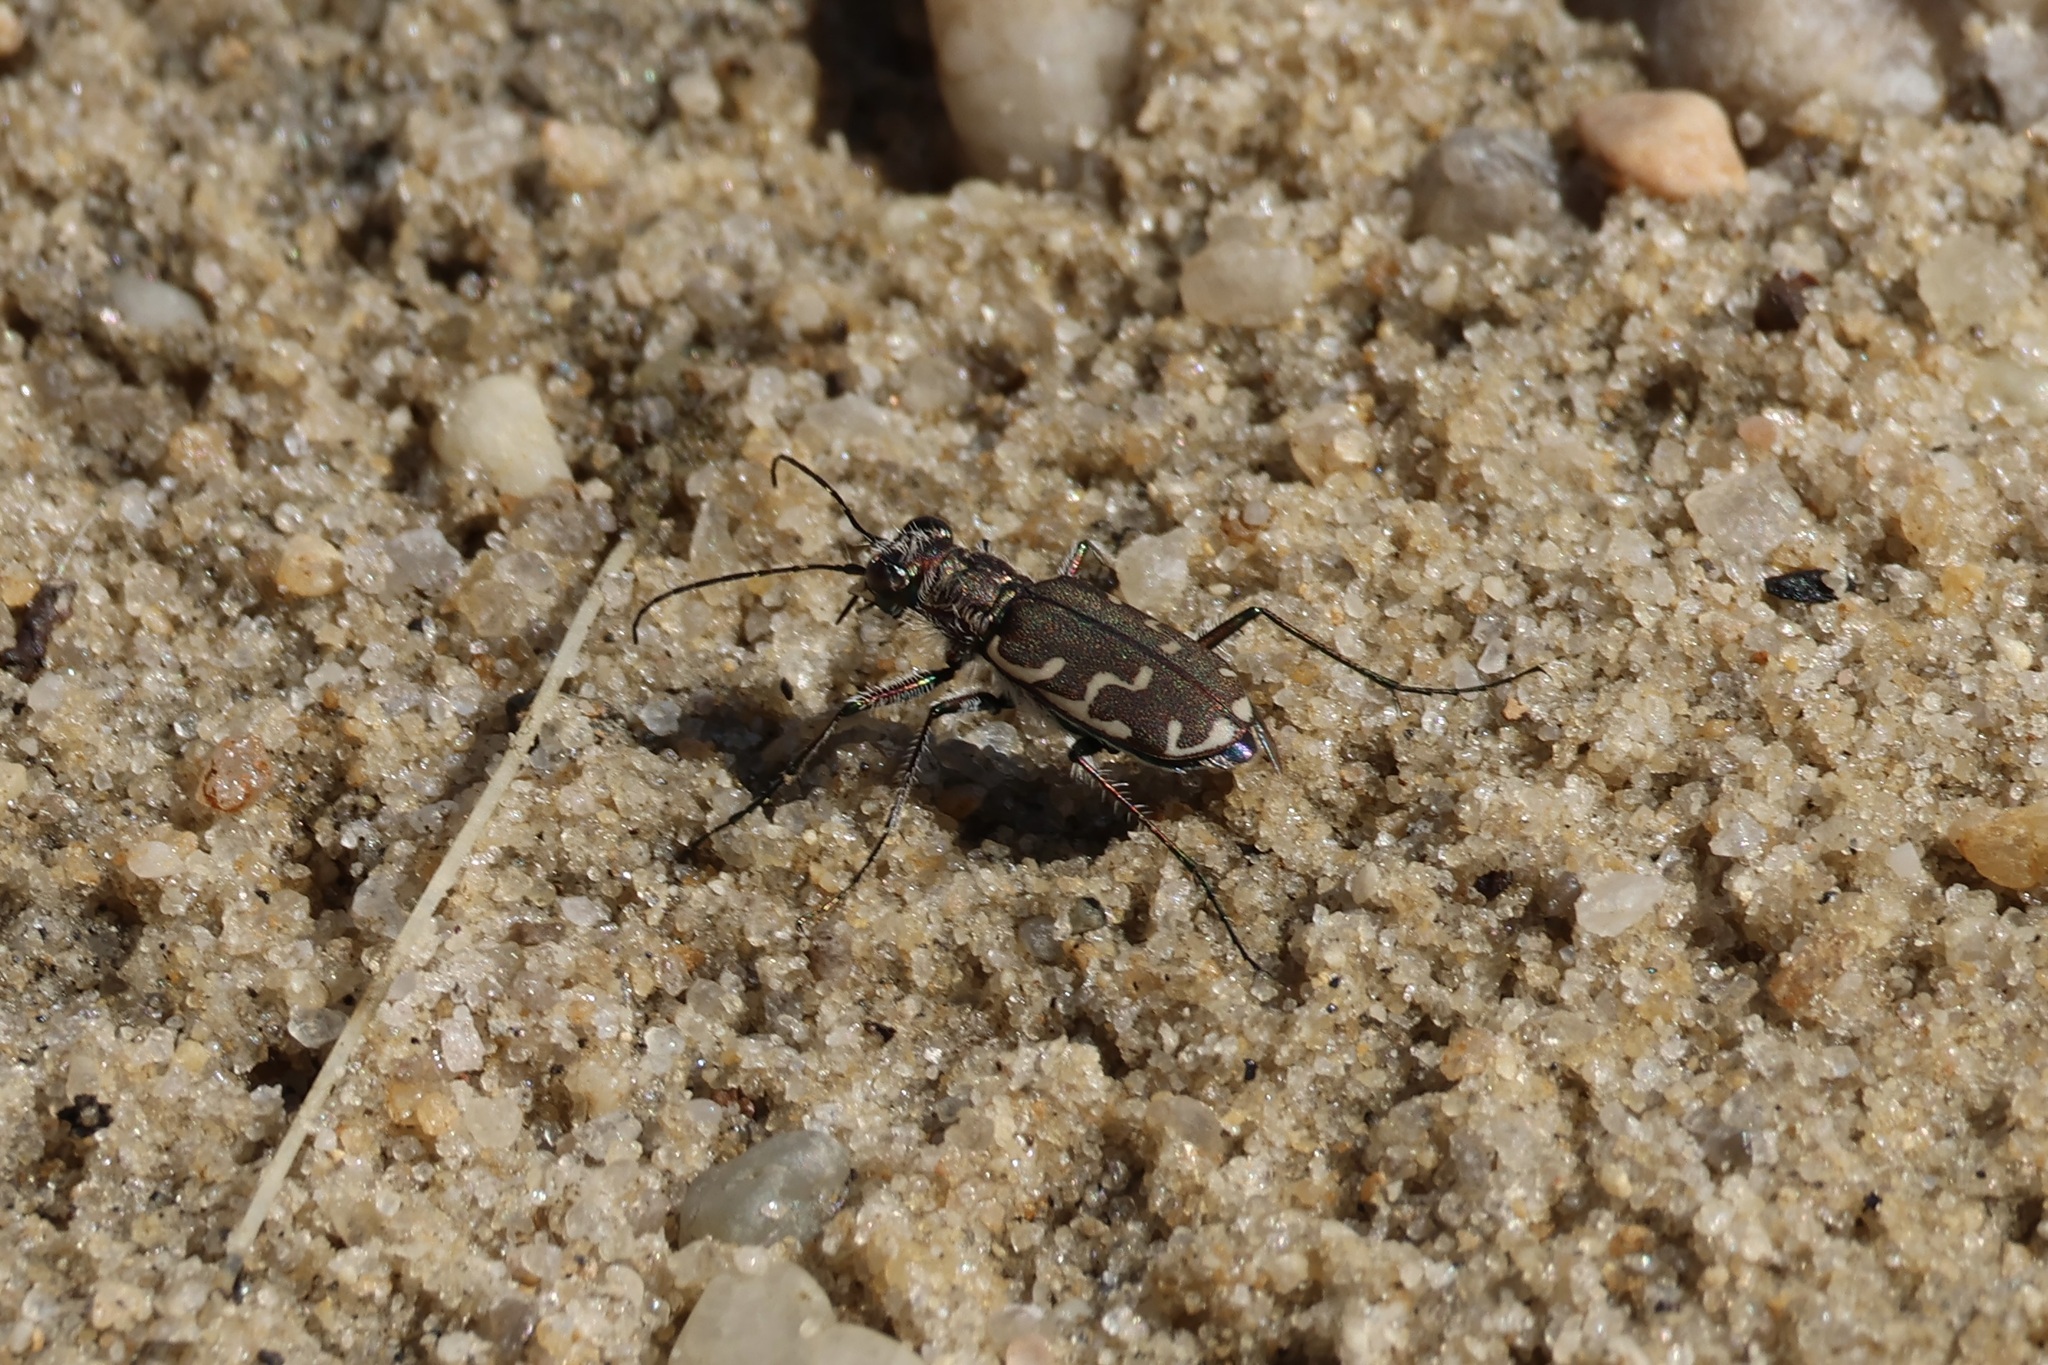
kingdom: Animalia
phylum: Arthropoda
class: Insecta
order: Coleoptera
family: Carabidae
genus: Cicindela
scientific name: Cicindela repanda
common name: Bronzed tiger beetle
